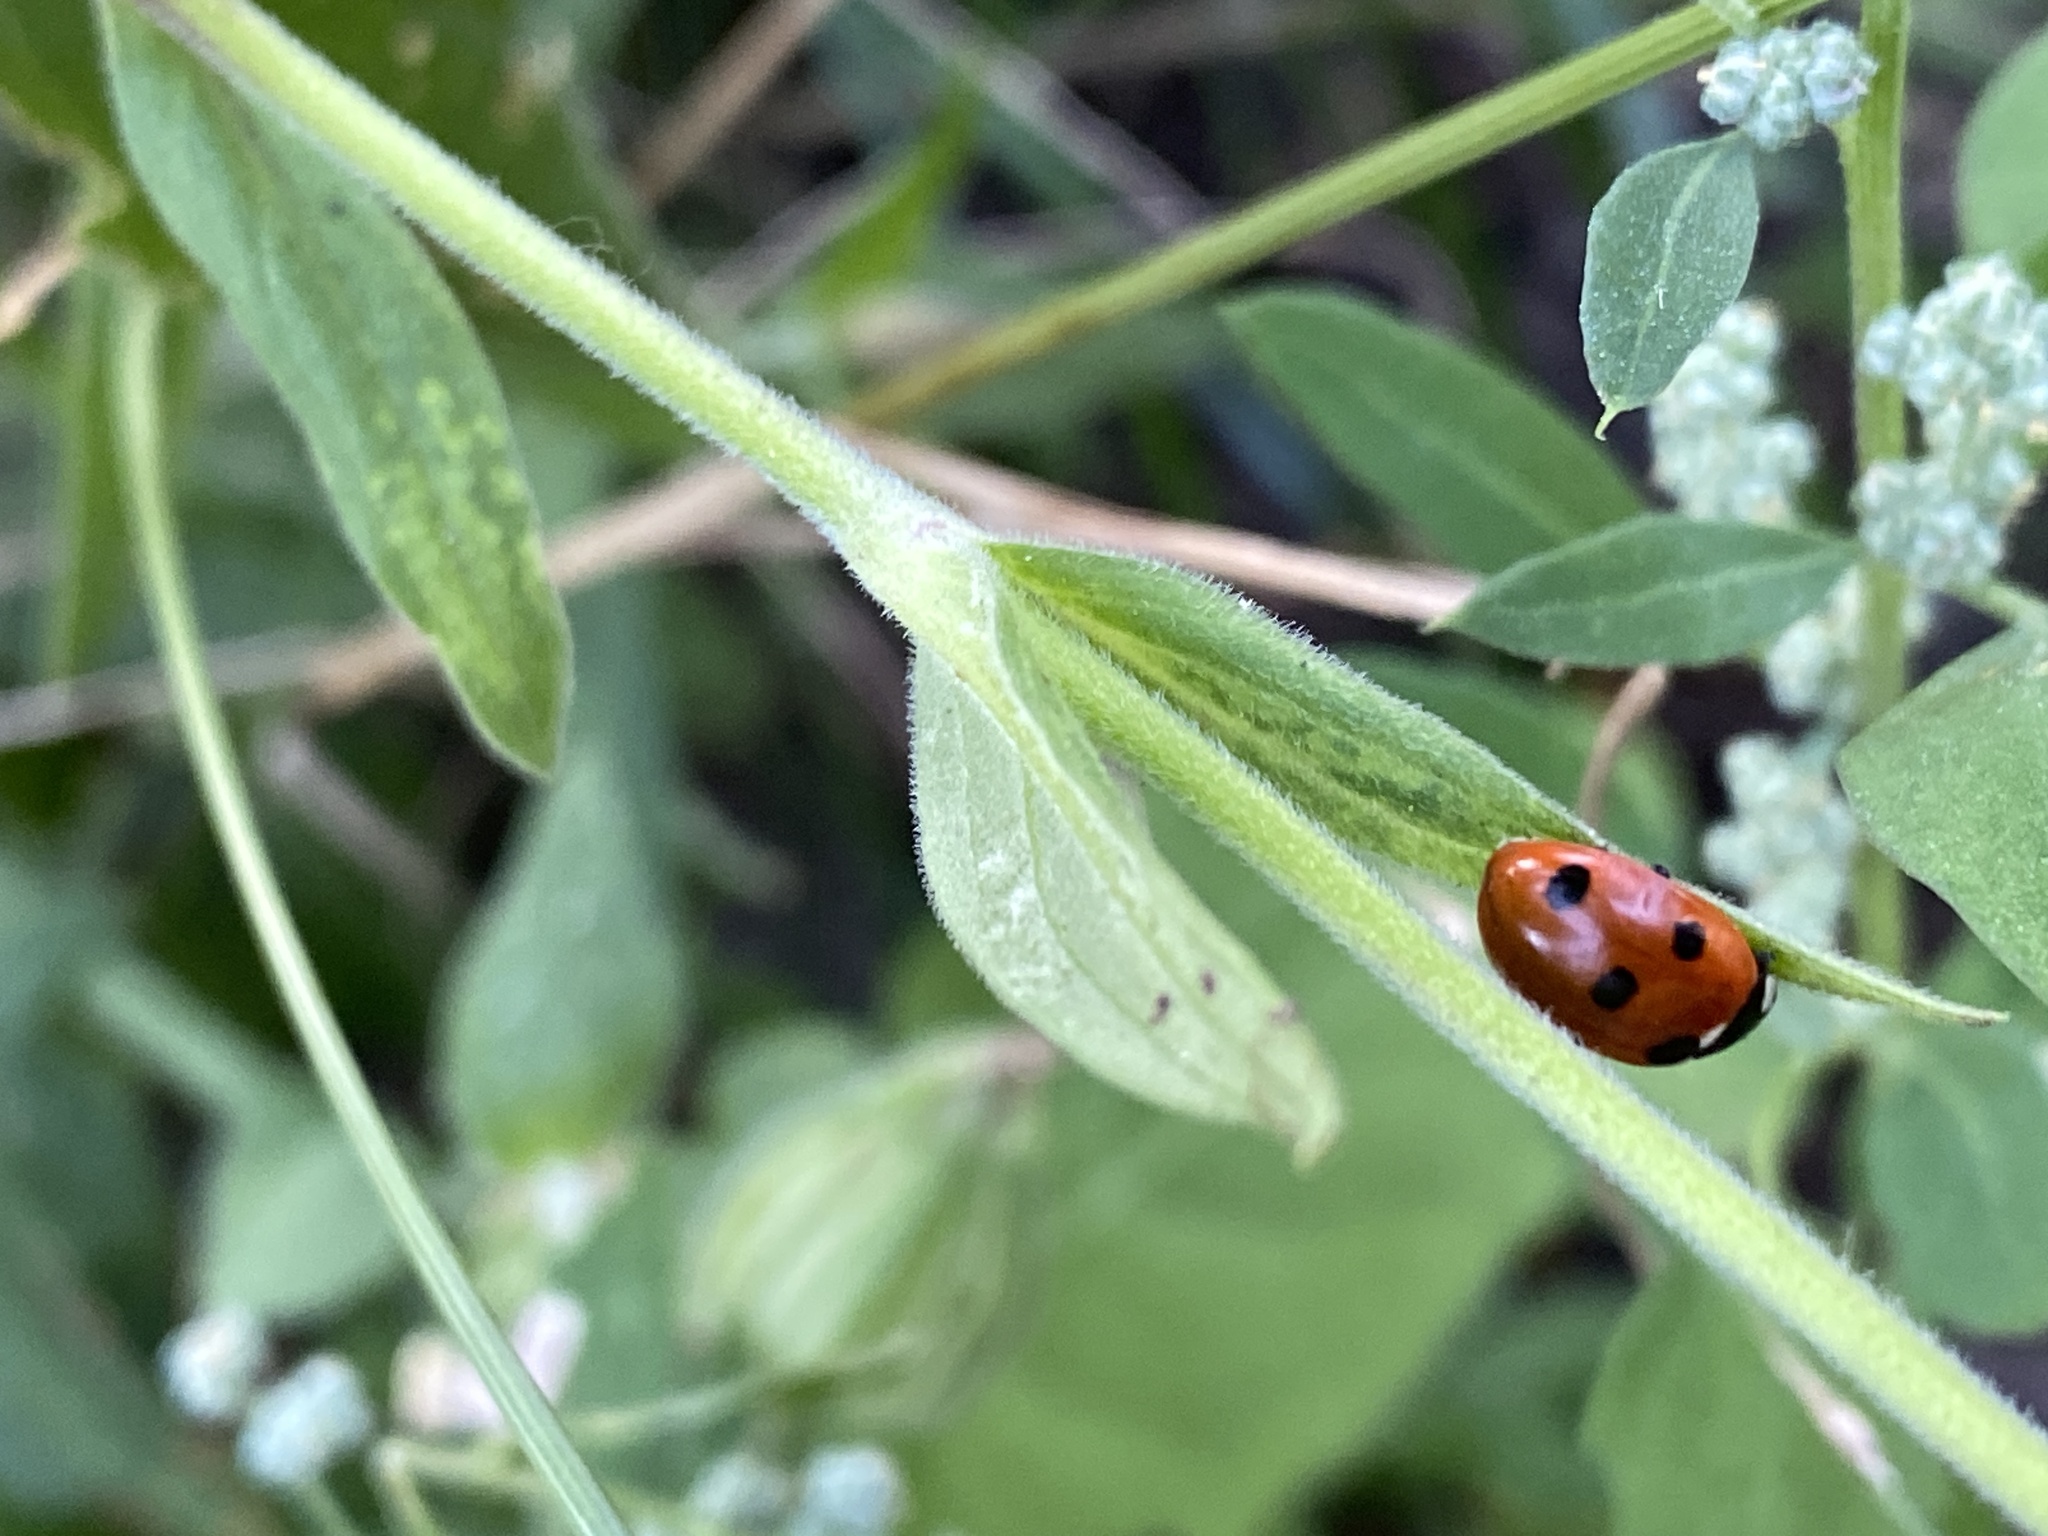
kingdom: Animalia
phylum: Arthropoda
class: Insecta
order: Coleoptera
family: Coccinellidae
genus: Coccinella
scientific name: Coccinella septempunctata
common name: Sevenspotted lady beetle
